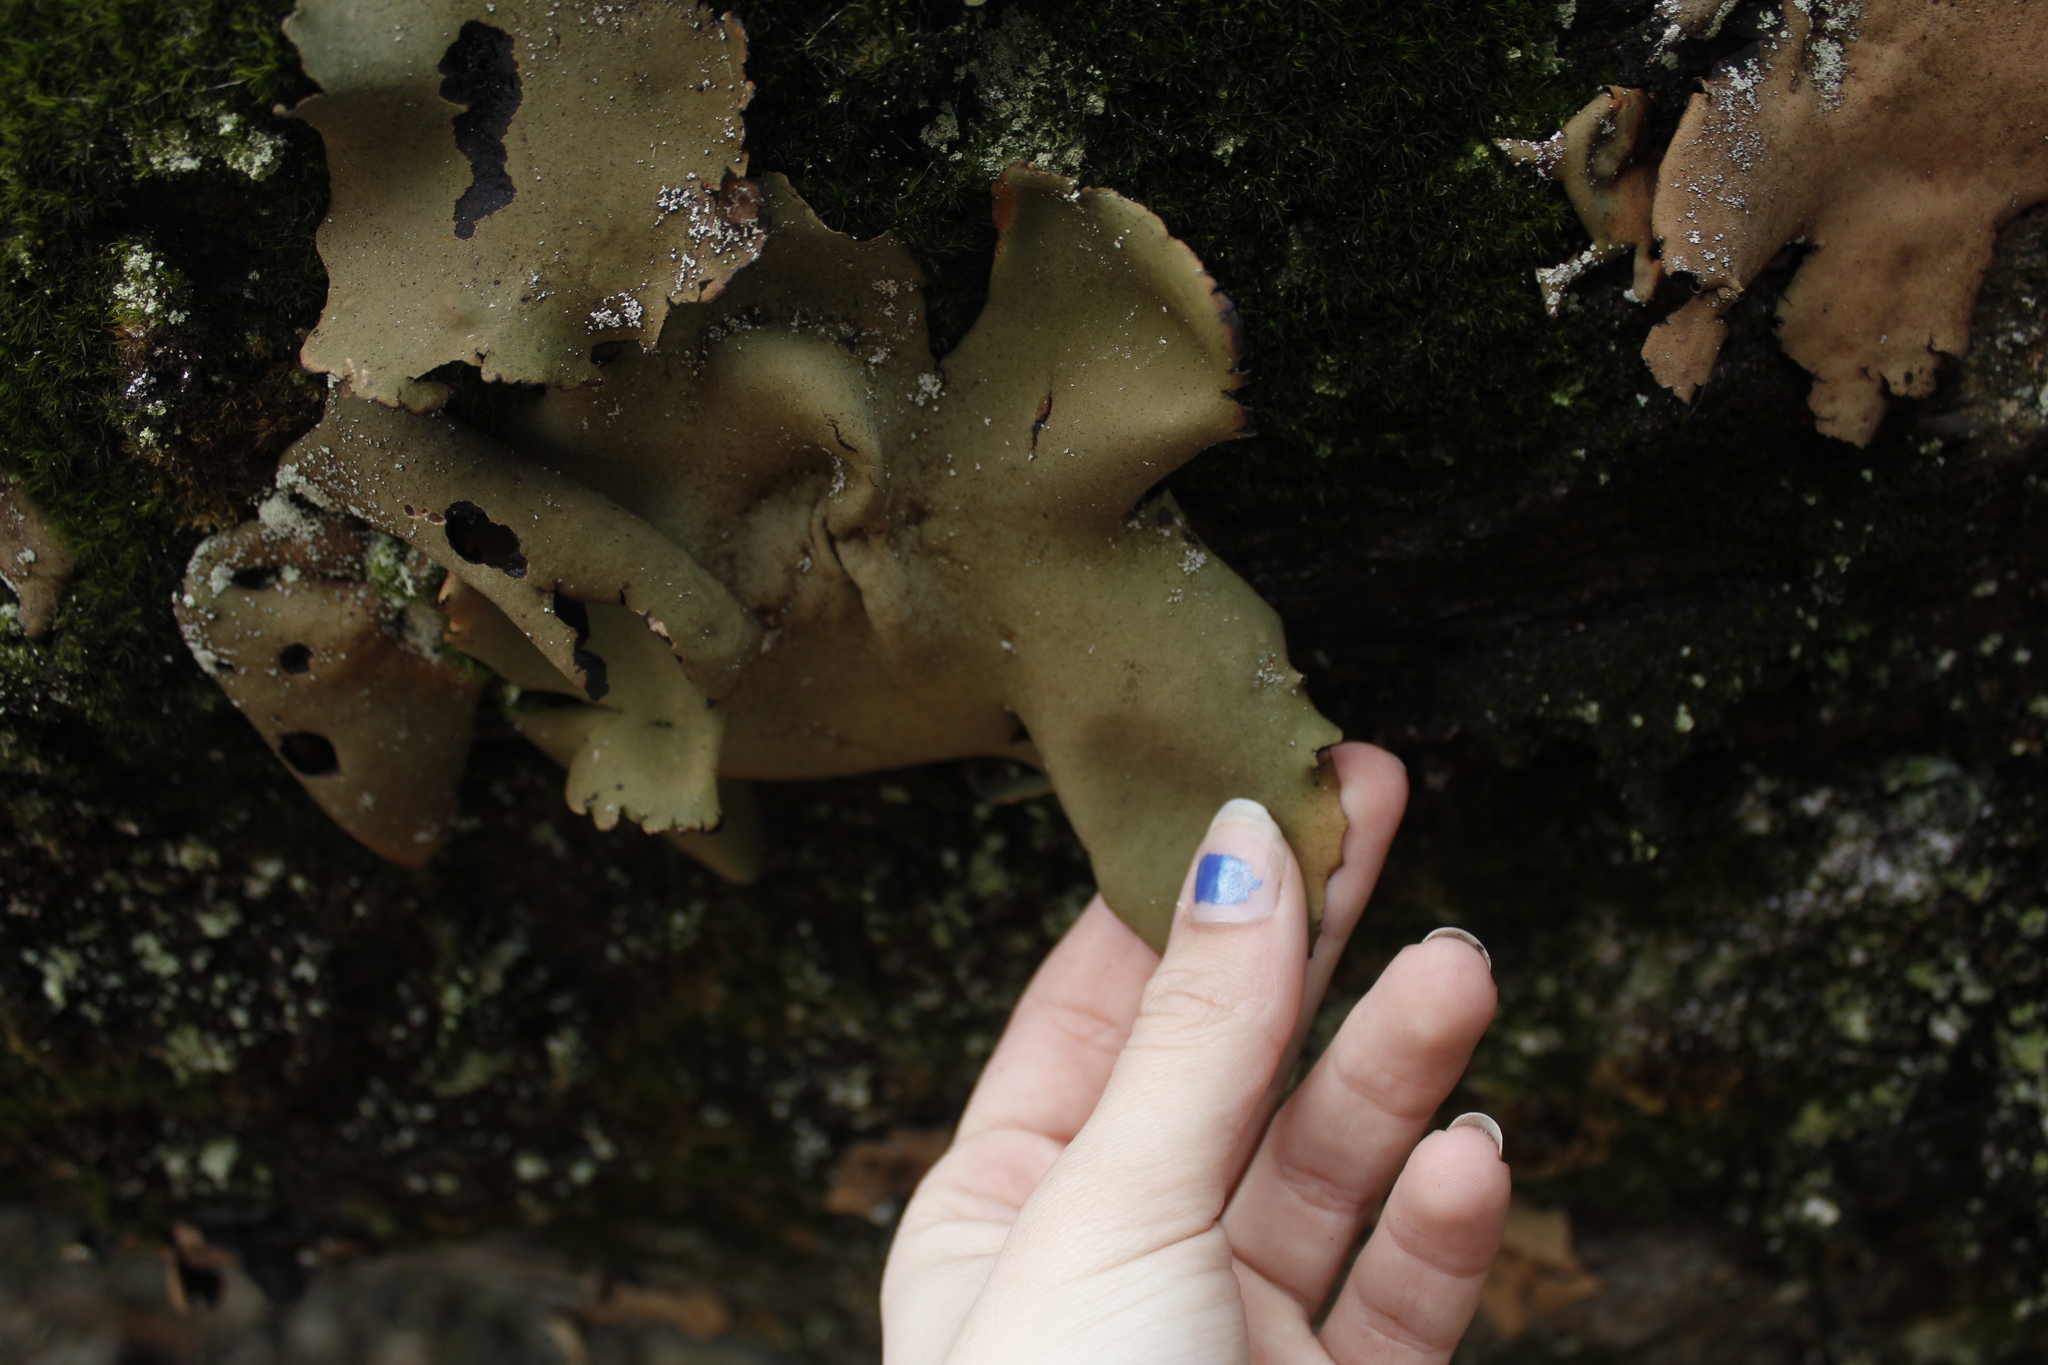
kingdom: Fungi
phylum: Ascomycota
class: Lecanoromycetes
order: Umbilicariales
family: Umbilicariaceae
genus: Umbilicaria
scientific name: Umbilicaria mammulata
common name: Smooth rock tripe
